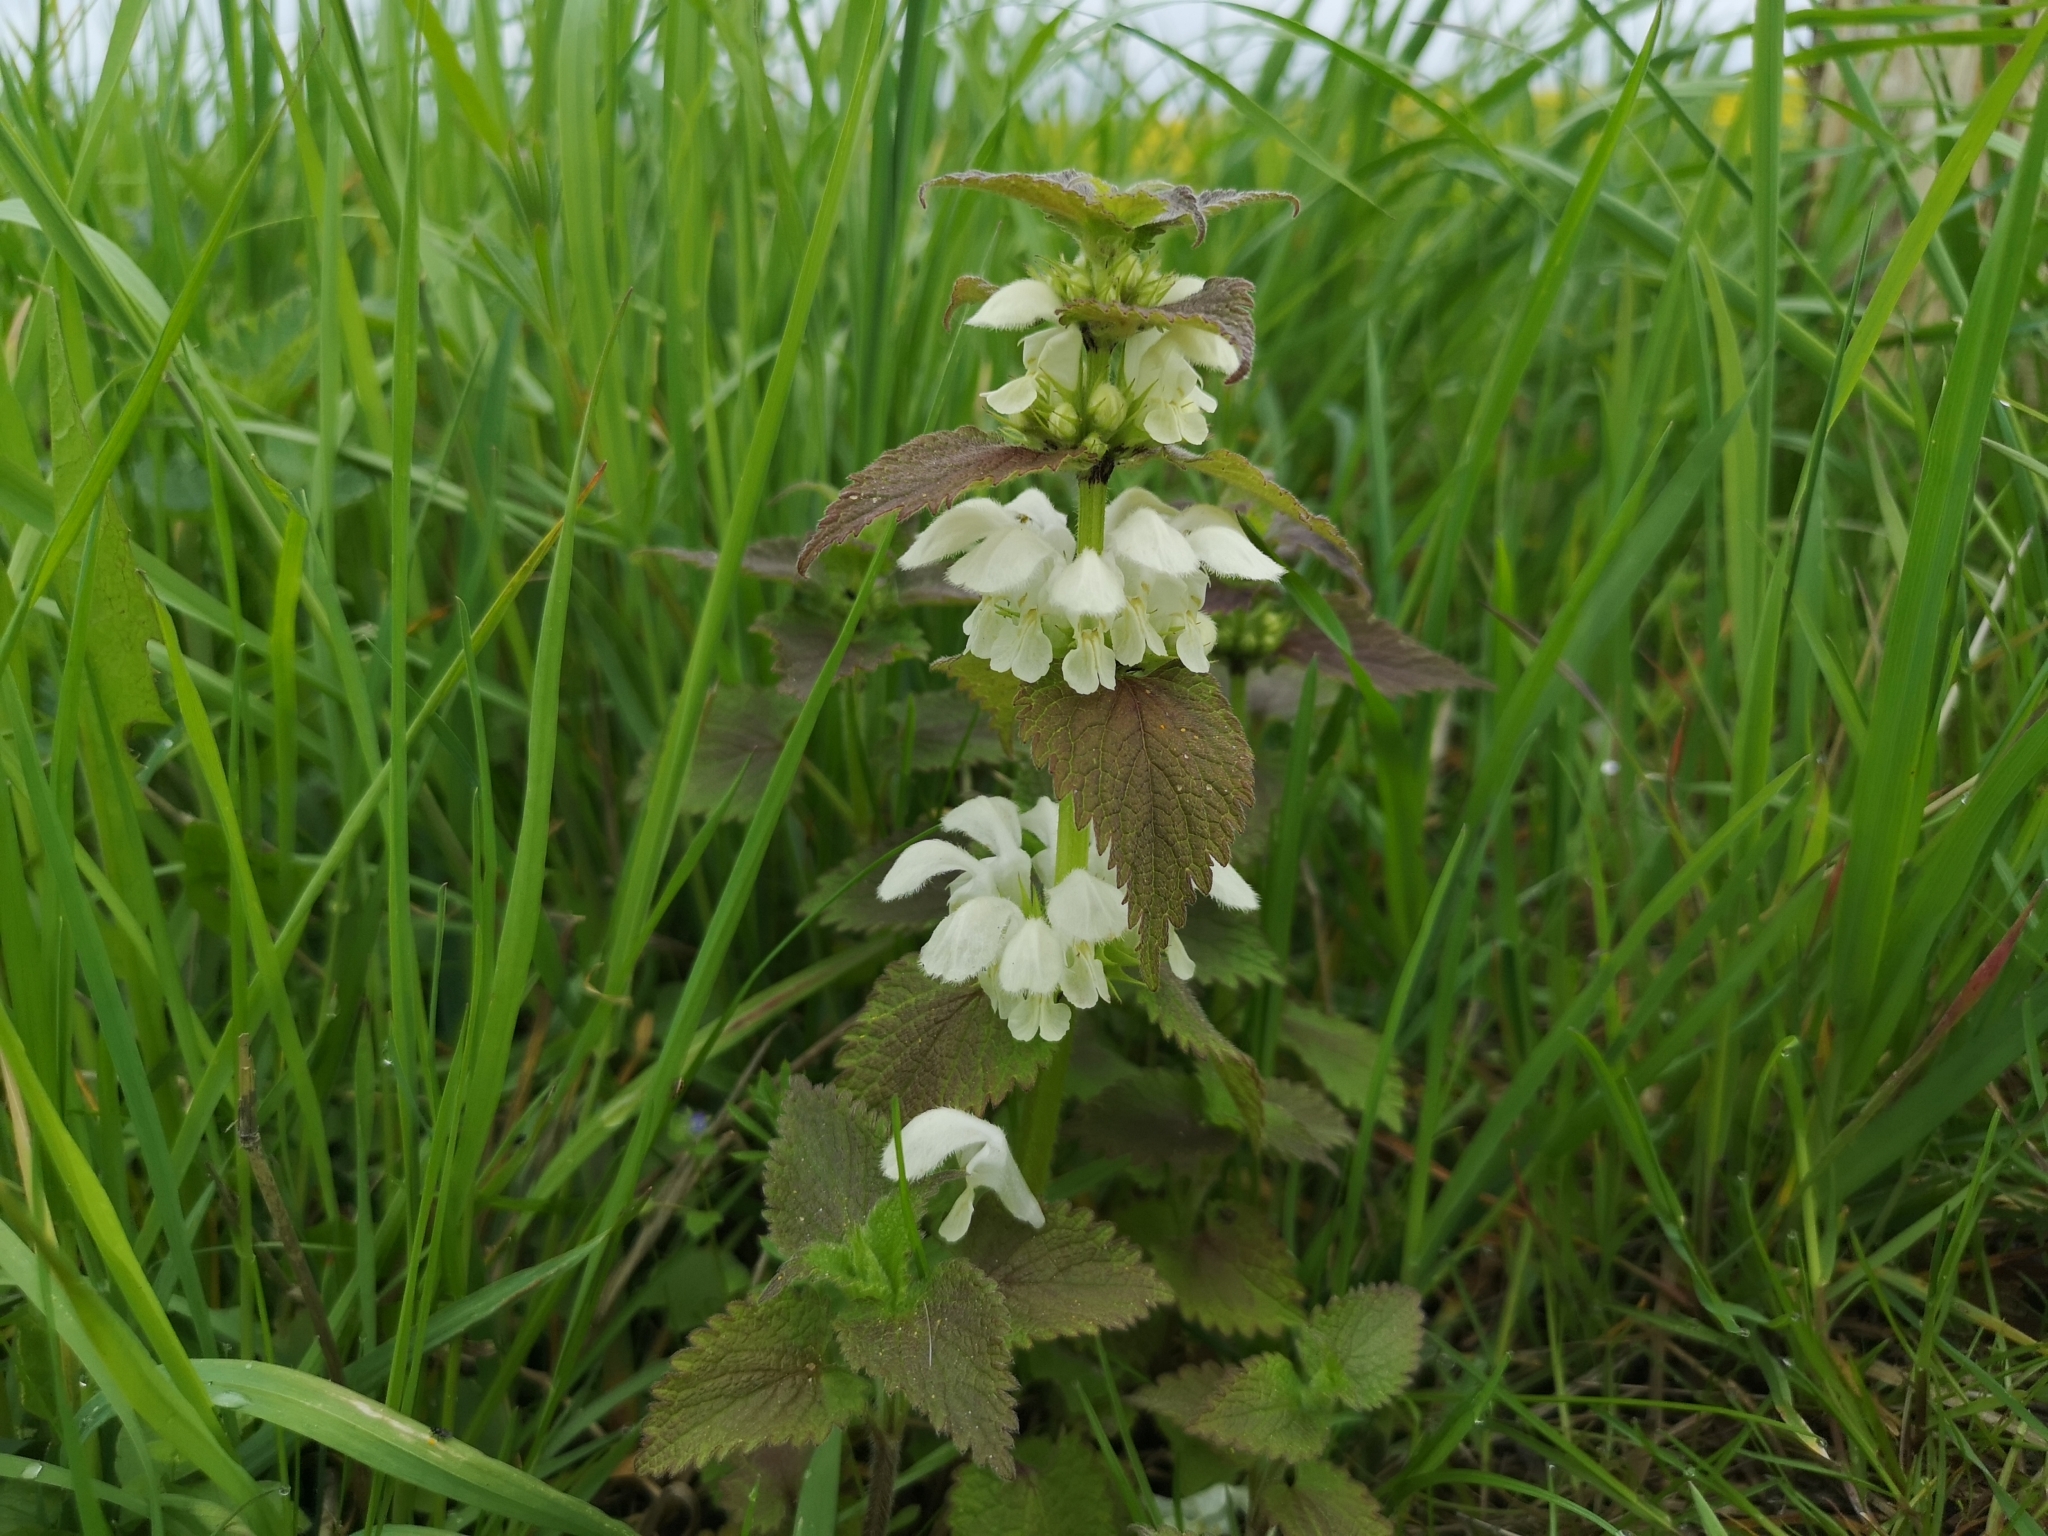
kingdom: Plantae
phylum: Tracheophyta
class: Magnoliopsida
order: Lamiales
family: Lamiaceae
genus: Lamium
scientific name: Lamium album
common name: White dead-nettle
